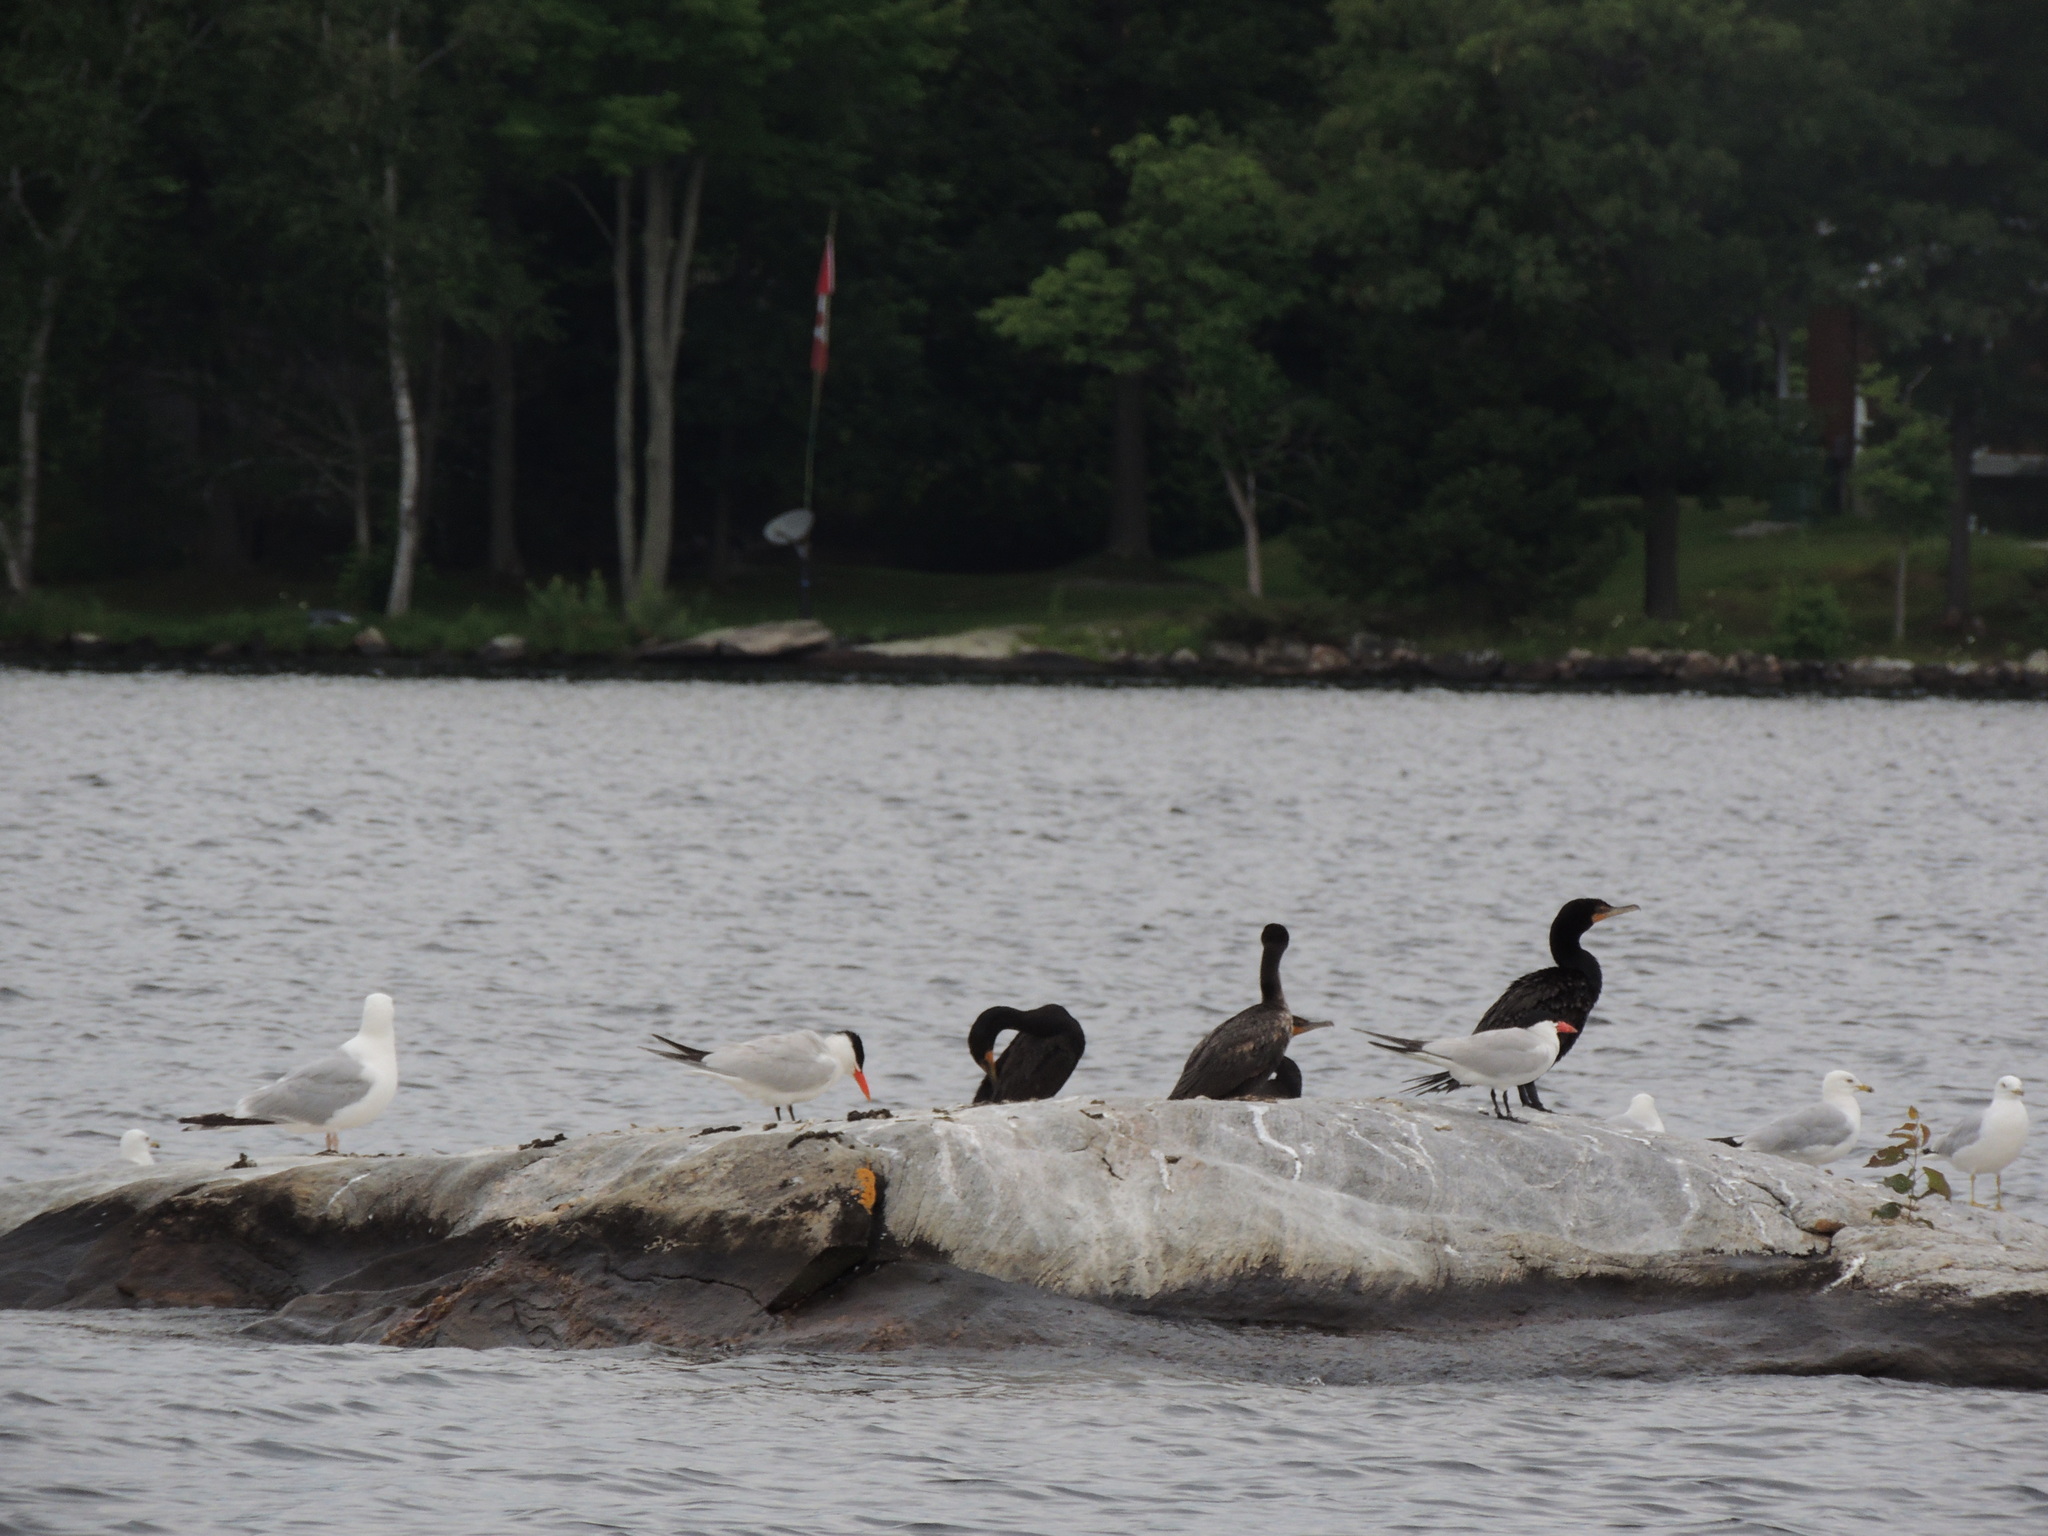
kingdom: Animalia
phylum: Chordata
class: Aves
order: Charadriiformes
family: Laridae
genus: Larus
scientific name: Larus delawarensis
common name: Ring-billed gull
